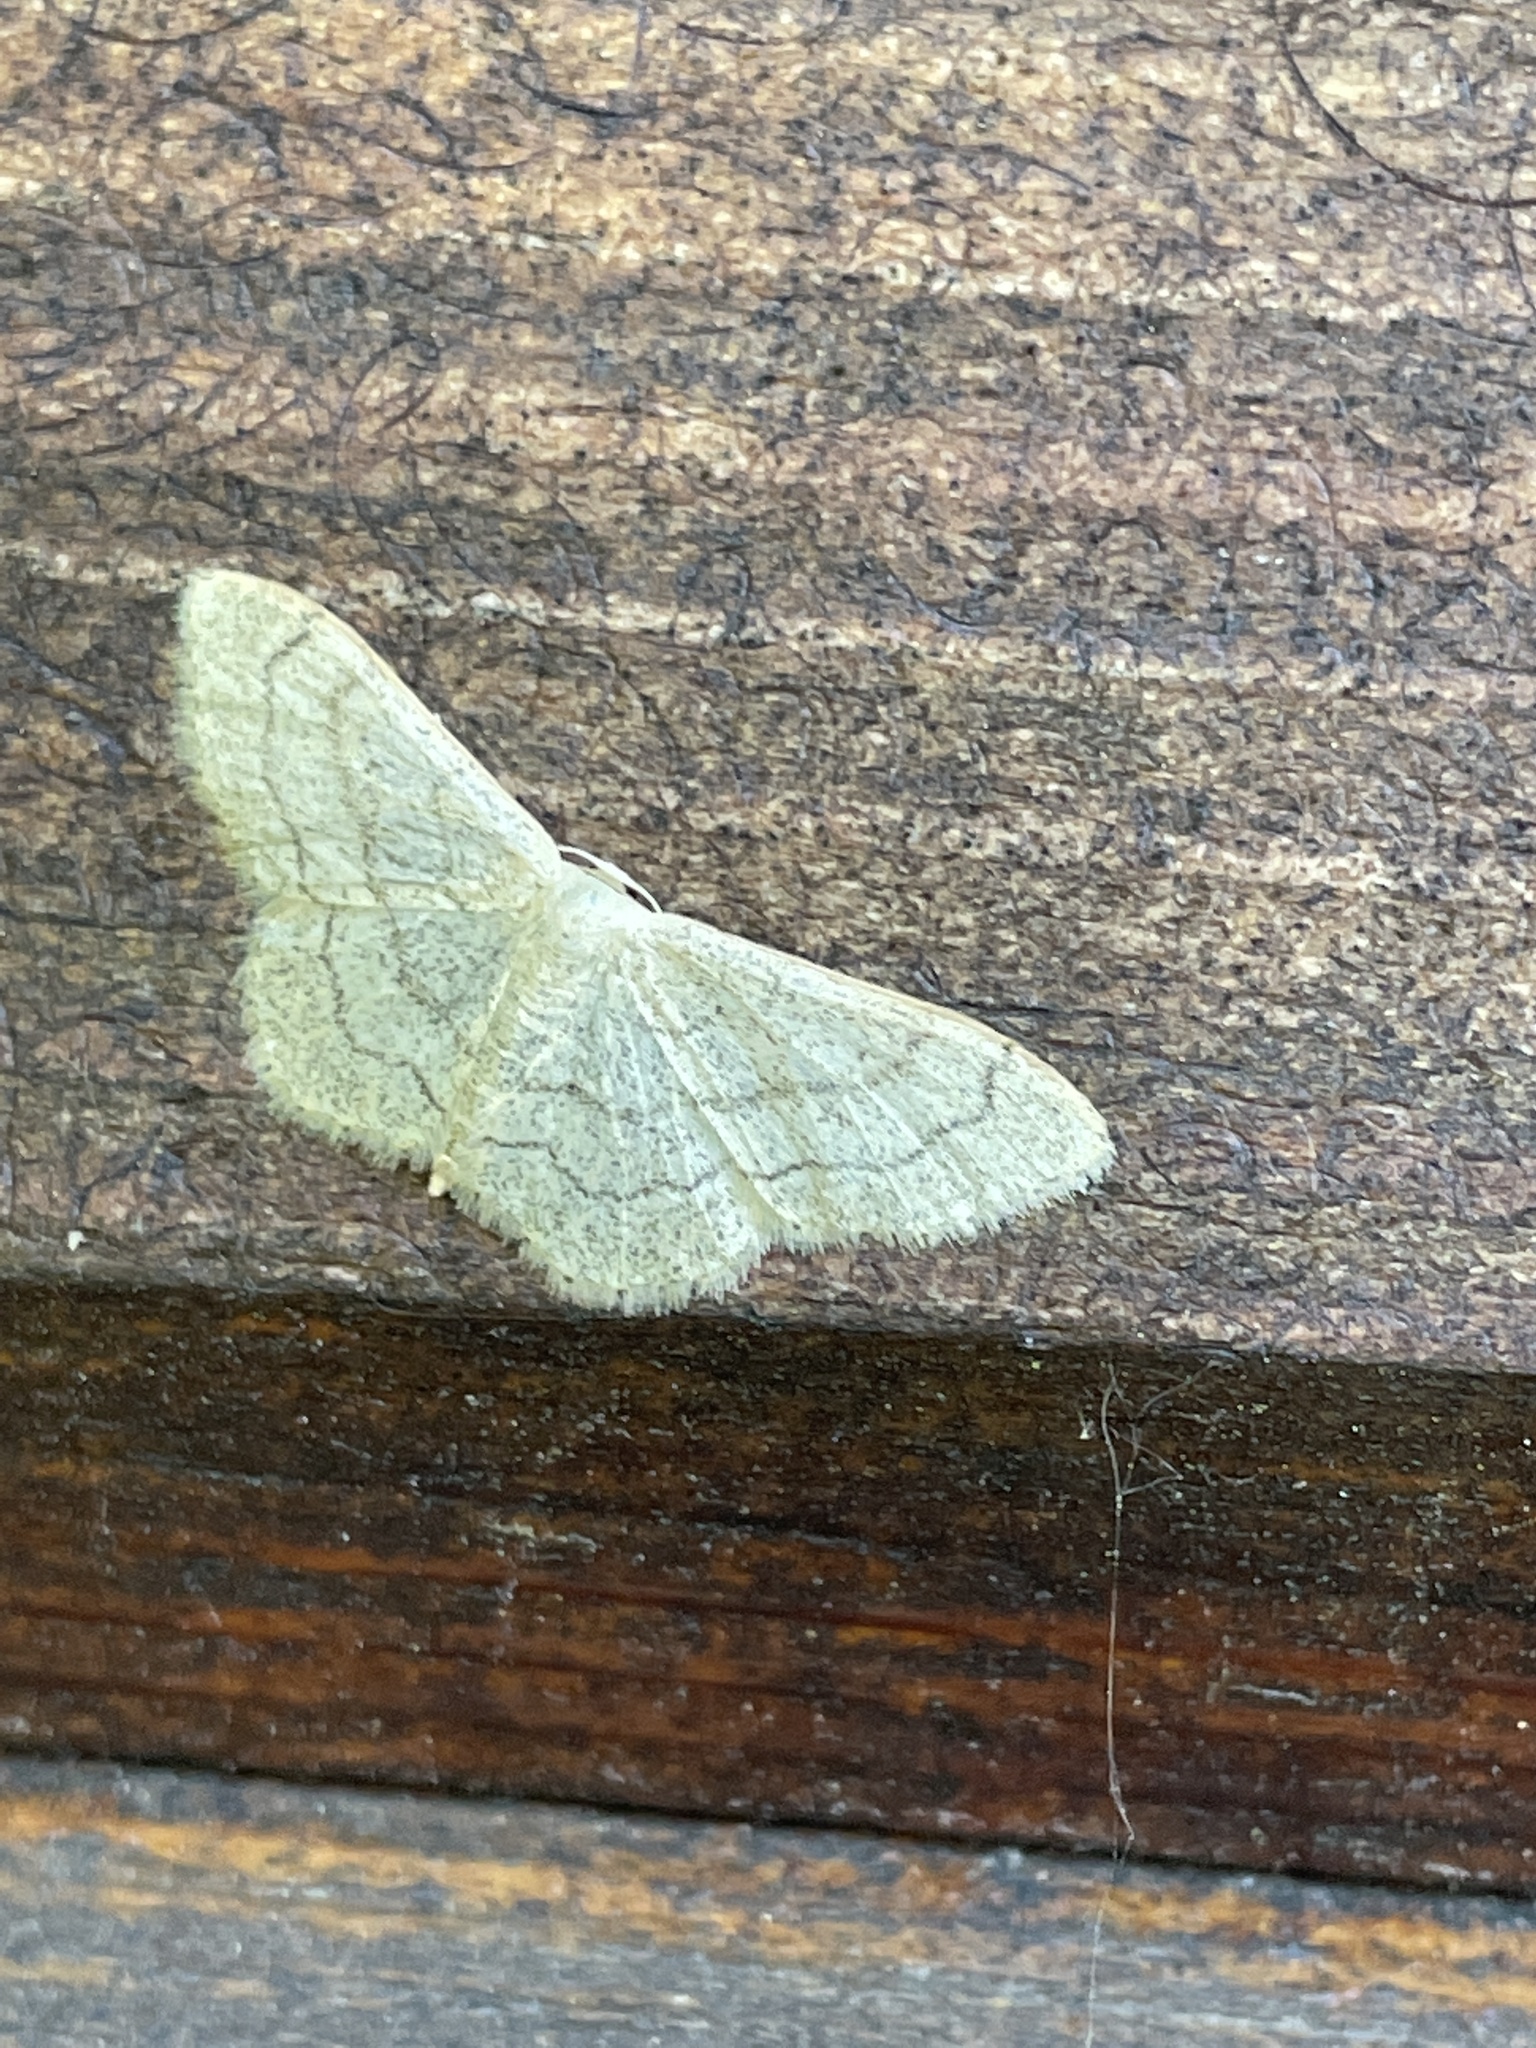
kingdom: Animalia
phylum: Arthropoda
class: Insecta
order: Lepidoptera
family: Geometridae
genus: Idaea
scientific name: Idaea aversata
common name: Riband wave
